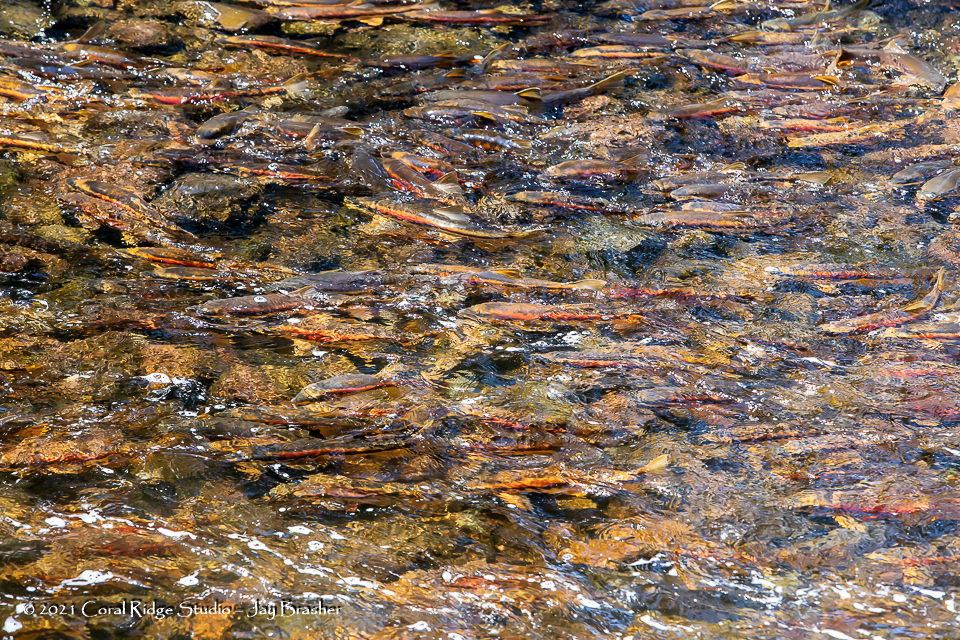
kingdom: Animalia
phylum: Chordata
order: Cypriniformes
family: Catostomidae
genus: Catostomus
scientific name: Catostomus catostomus
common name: Longnose sucker
